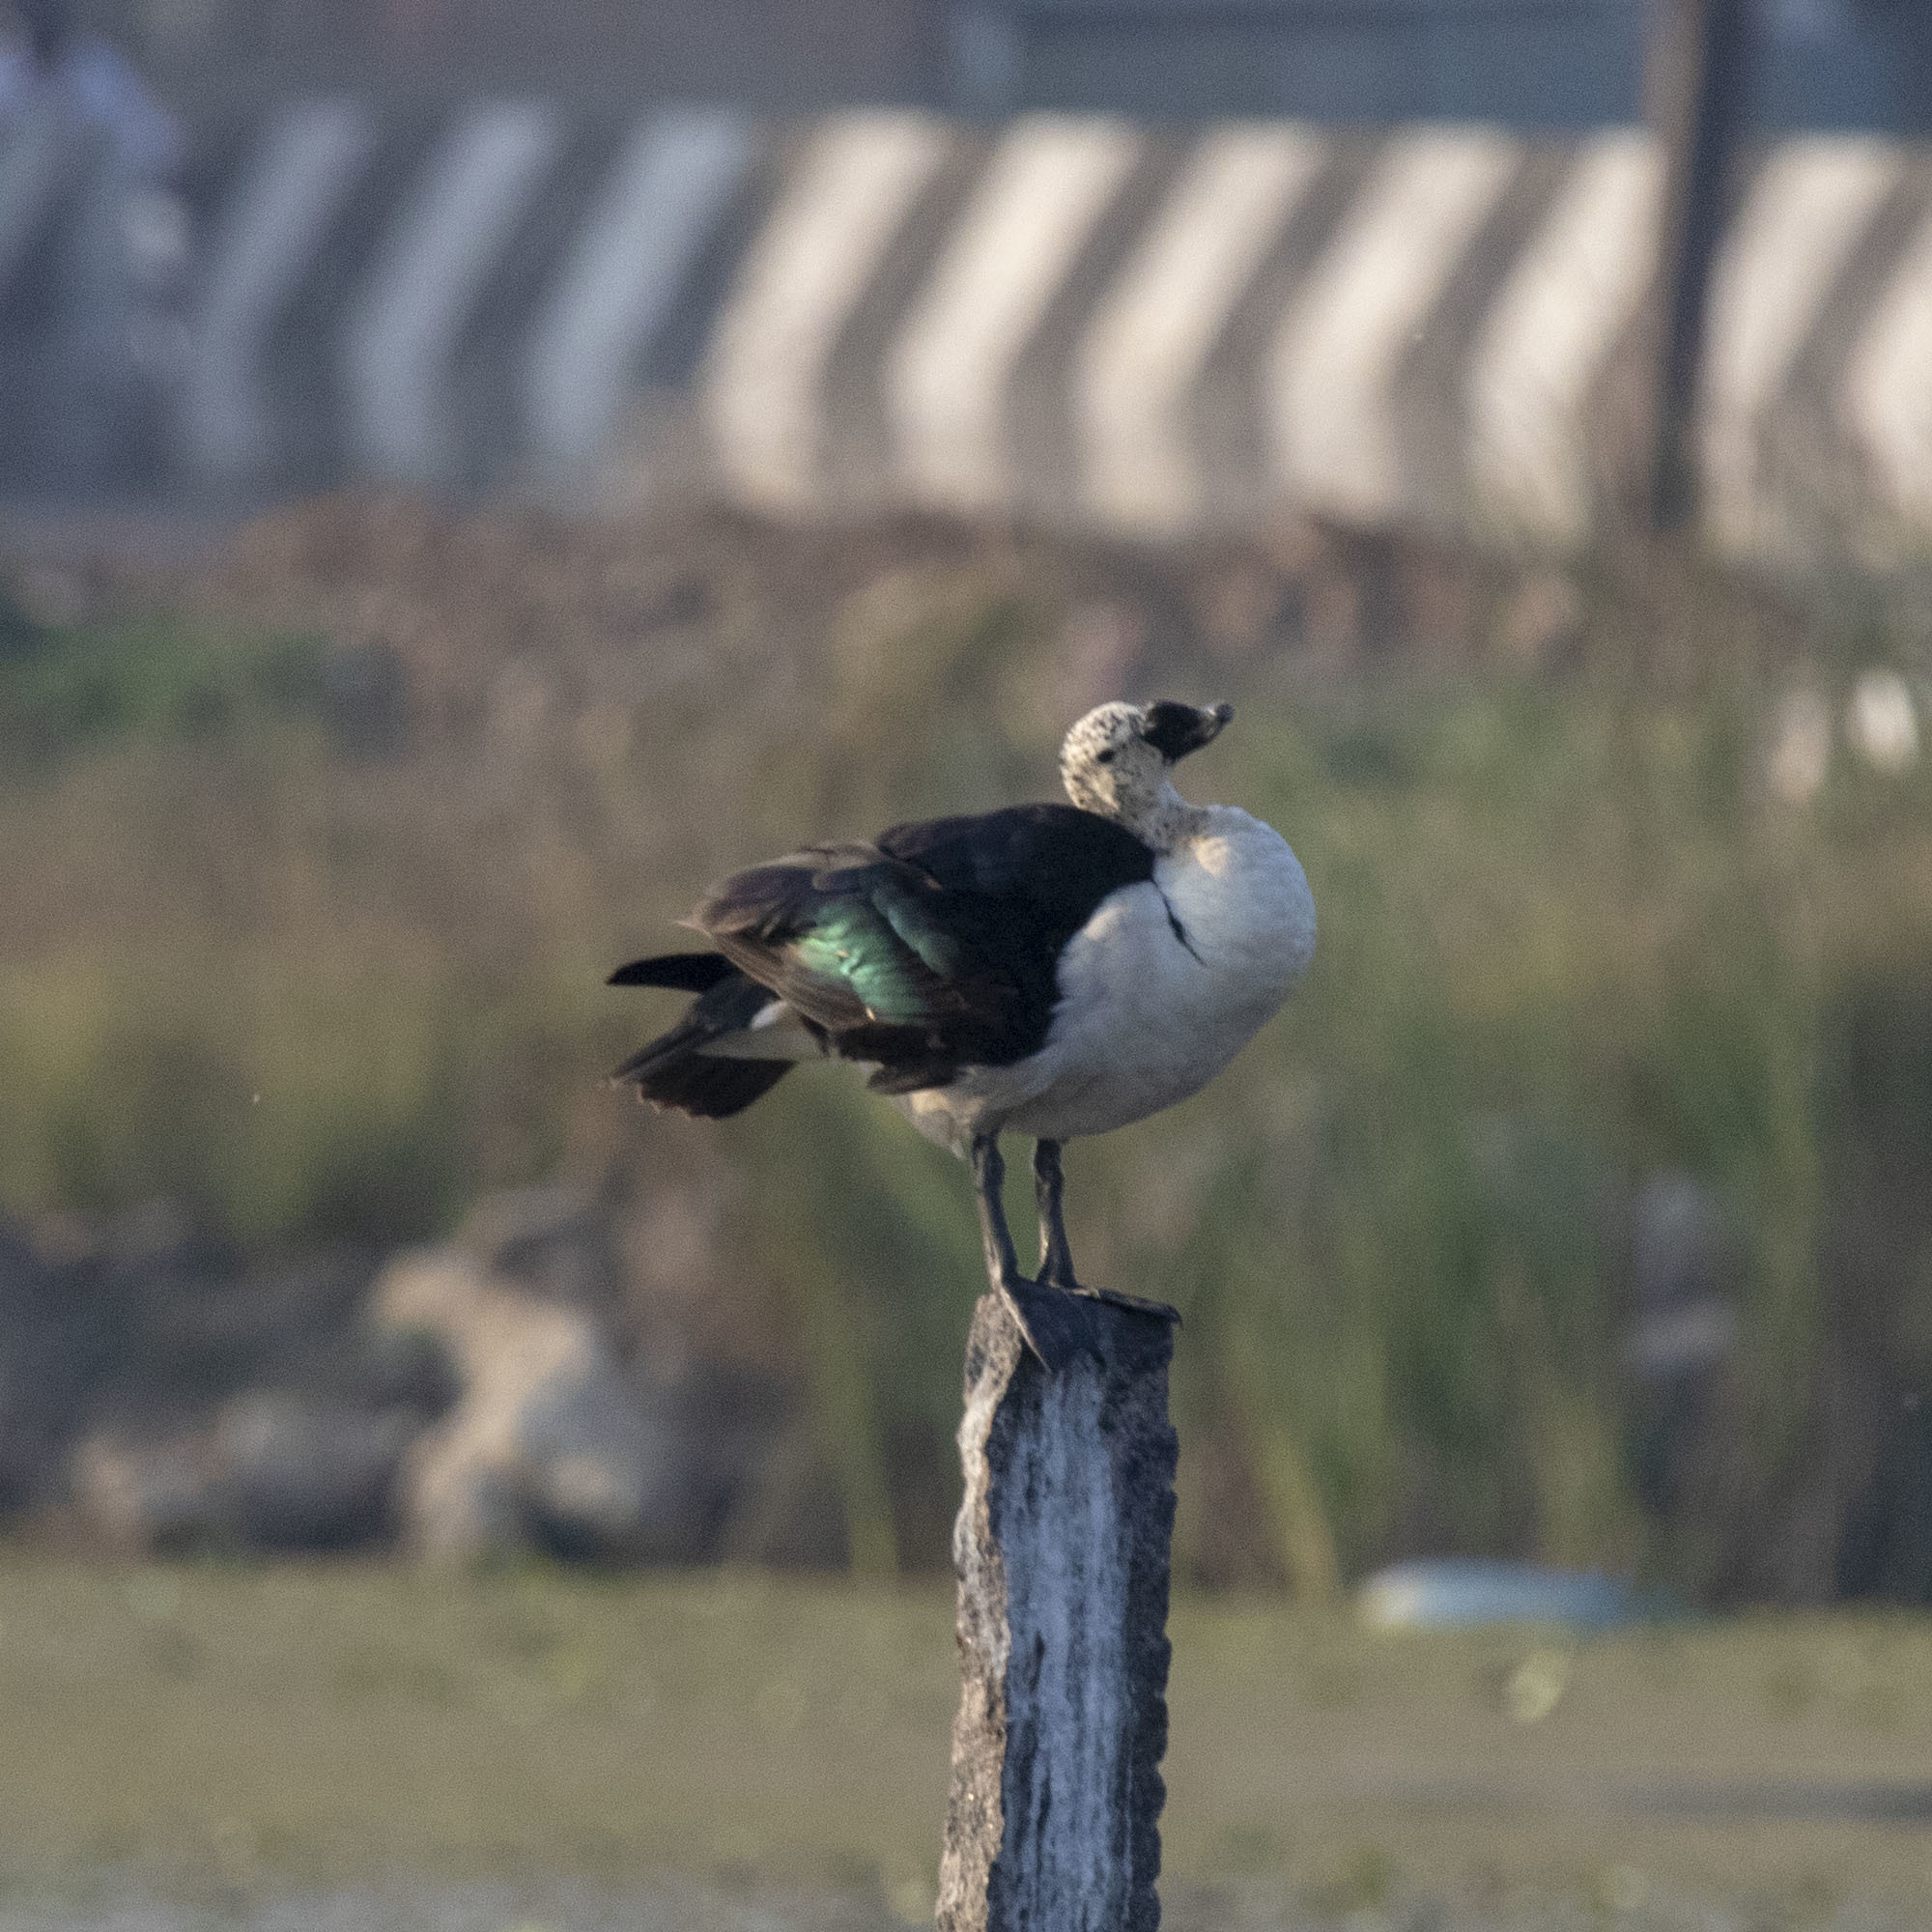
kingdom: Animalia
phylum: Chordata
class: Aves
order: Anseriformes
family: Anatidae
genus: Sarkidiornis
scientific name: Sarkidiornis melanotos
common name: Comb duck
